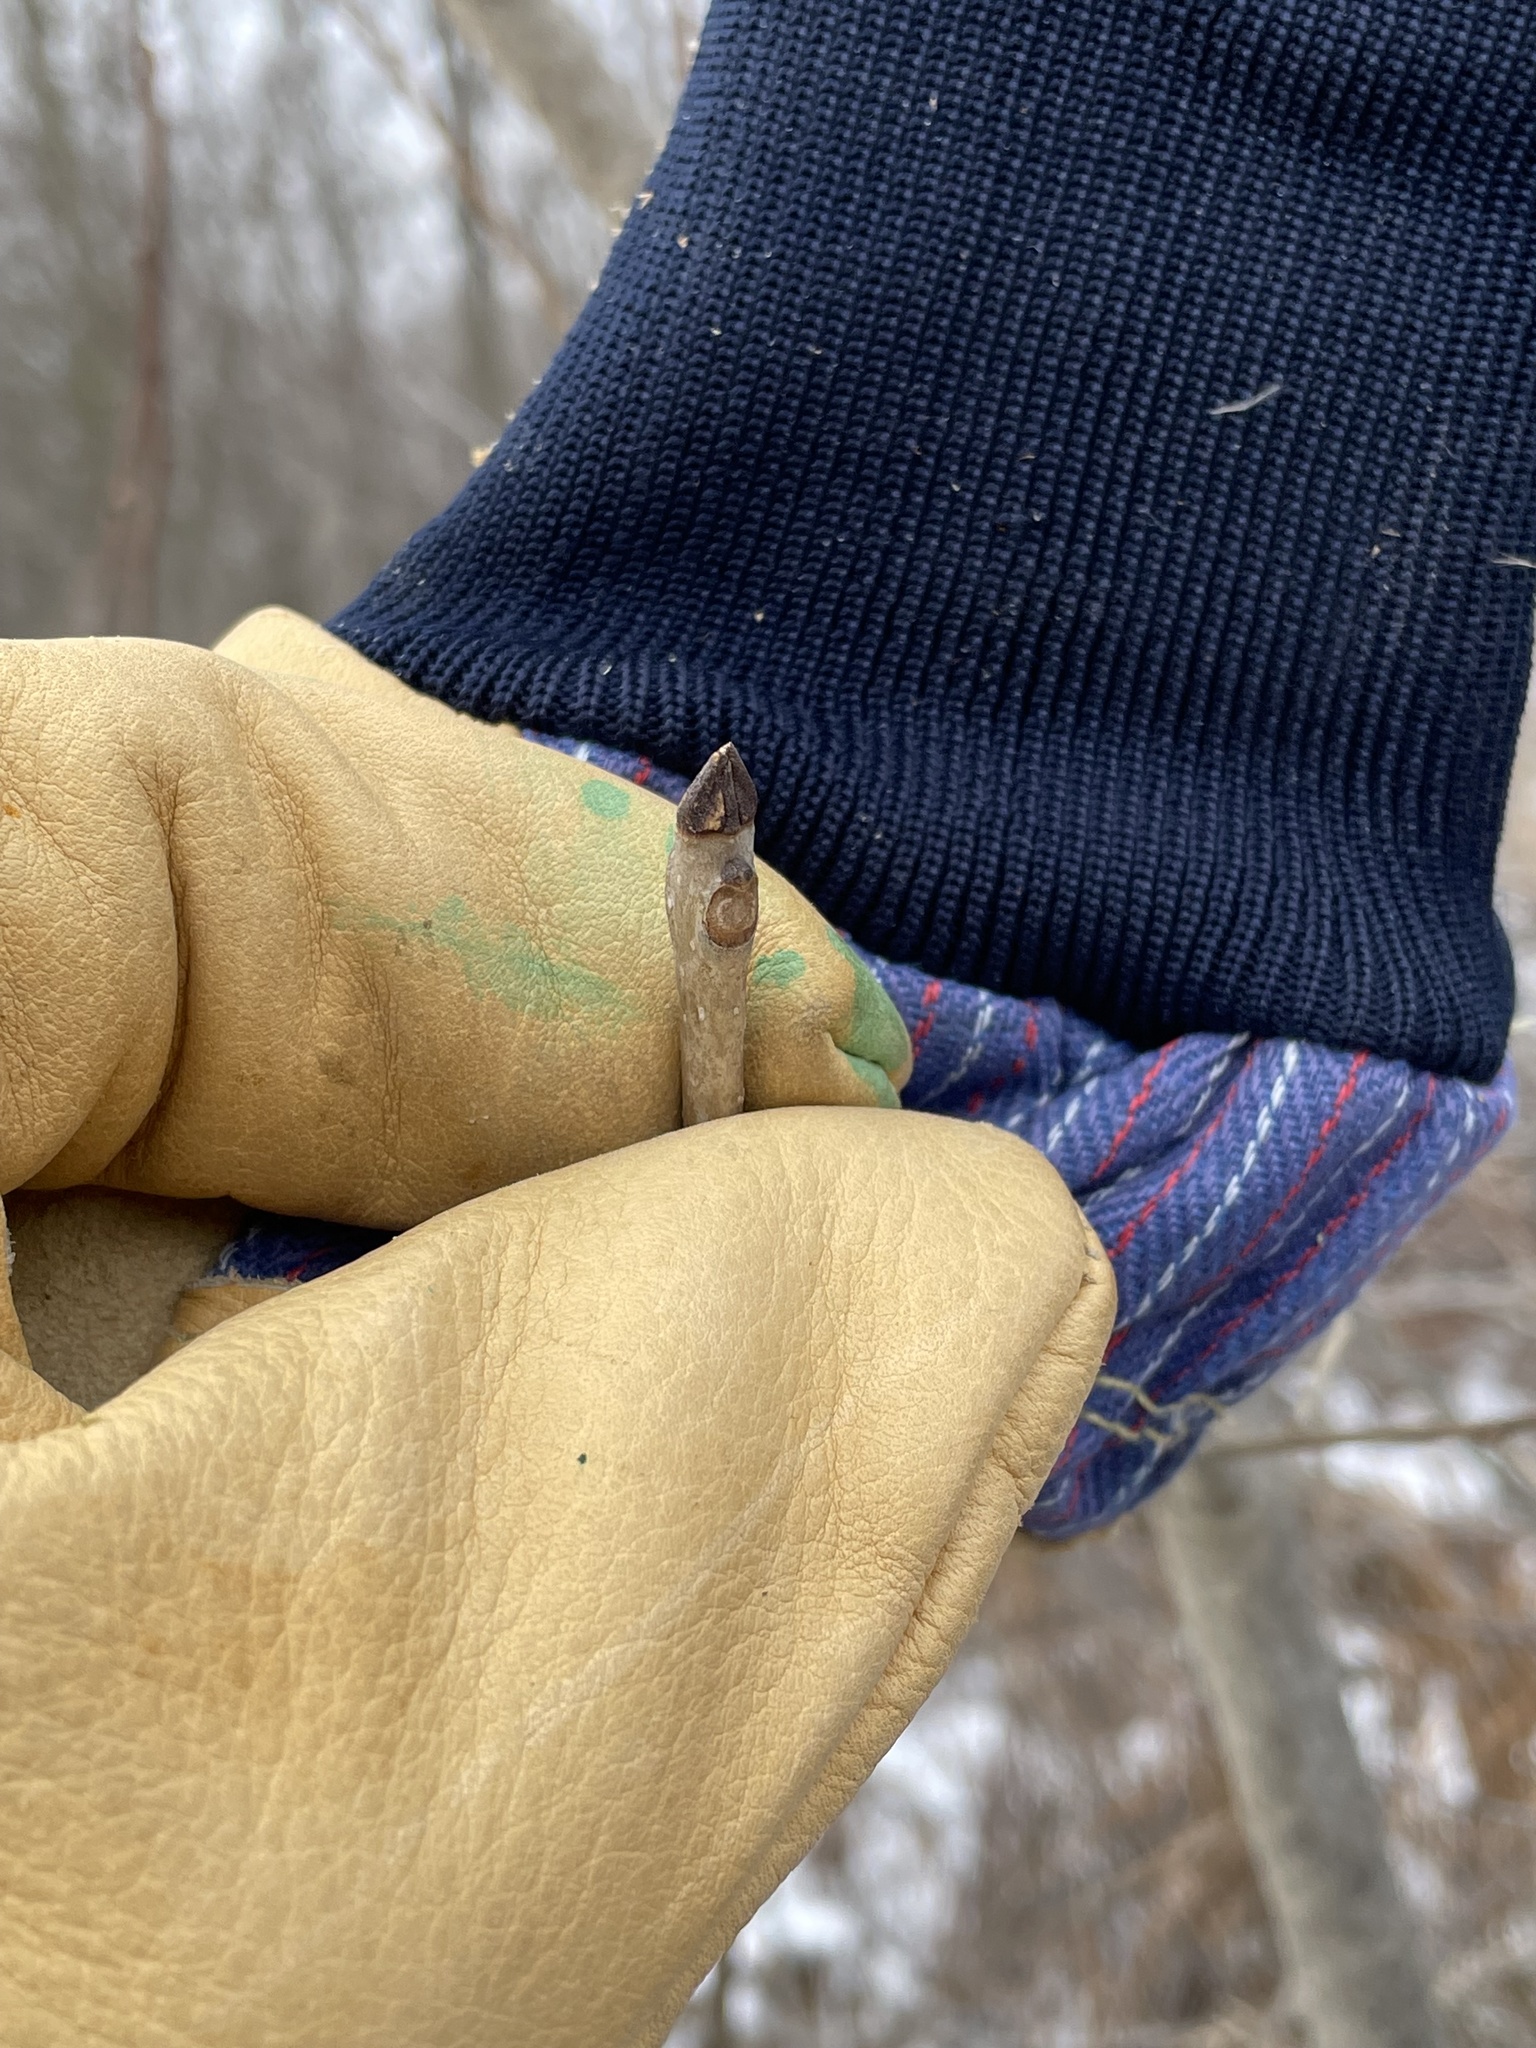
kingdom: Plantae
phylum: Tracheophyta
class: Magnoliopsida
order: Lamiales
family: Oleaceae
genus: Fraxinus
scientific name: Fraxinus nigra
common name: Black ash
